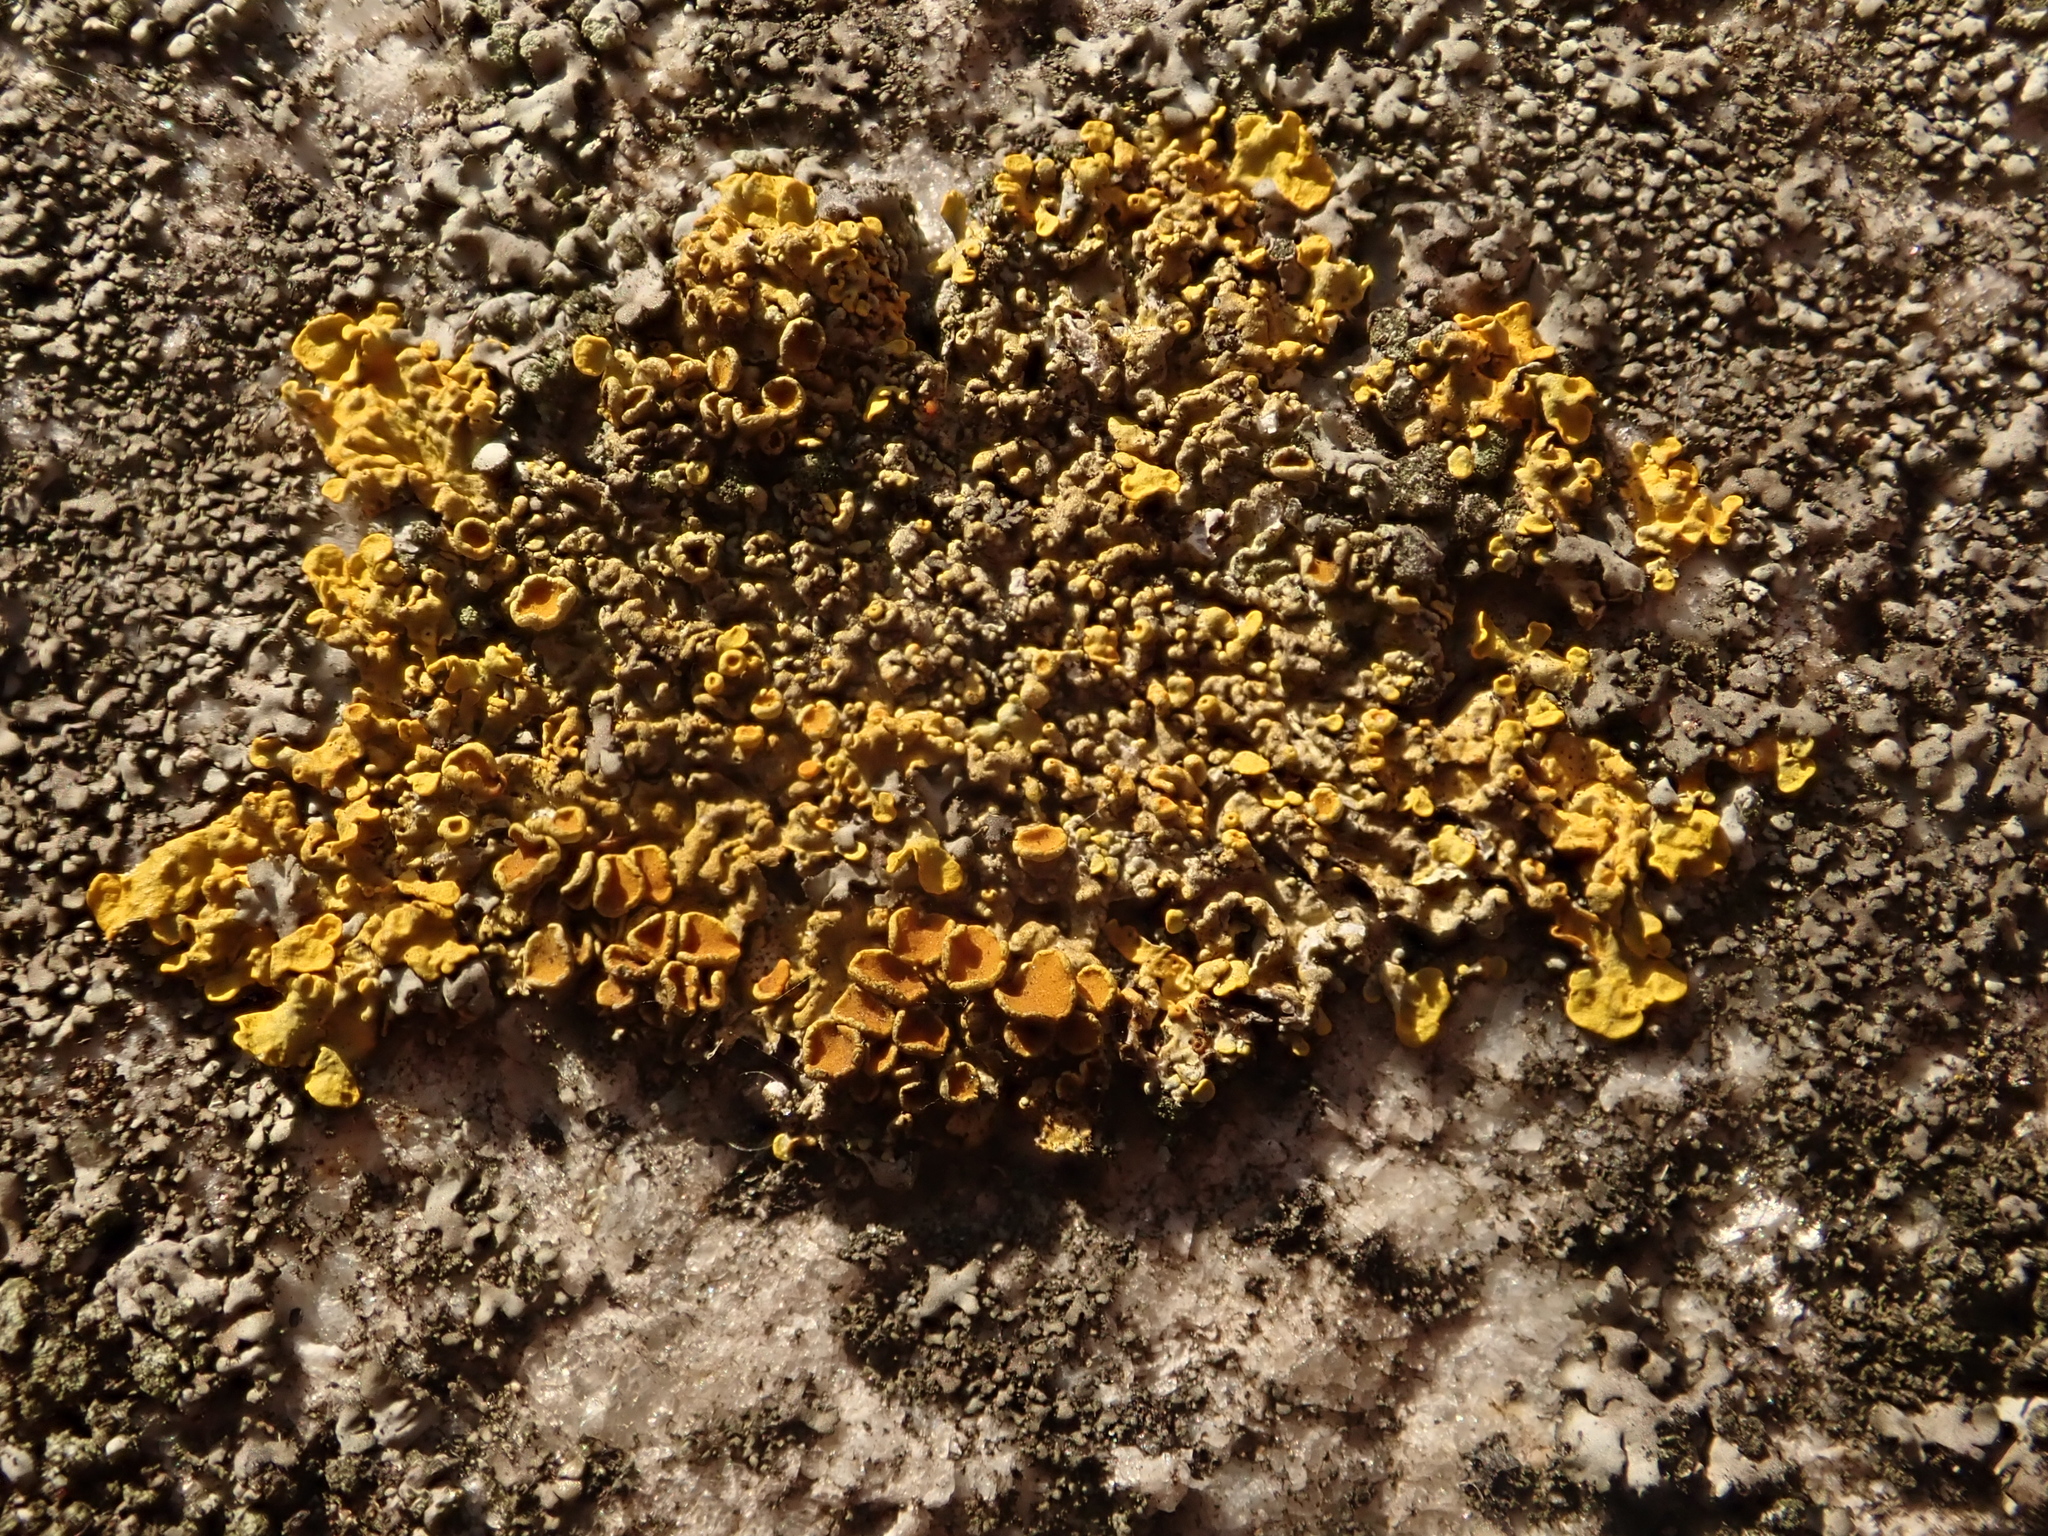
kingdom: Fungi
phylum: Ascomycota
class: Lecanoromycetes
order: Teloschistales
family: Teloschistaceae
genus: Xanthoria
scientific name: Xanthoria parietina
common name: Common orange lichen
